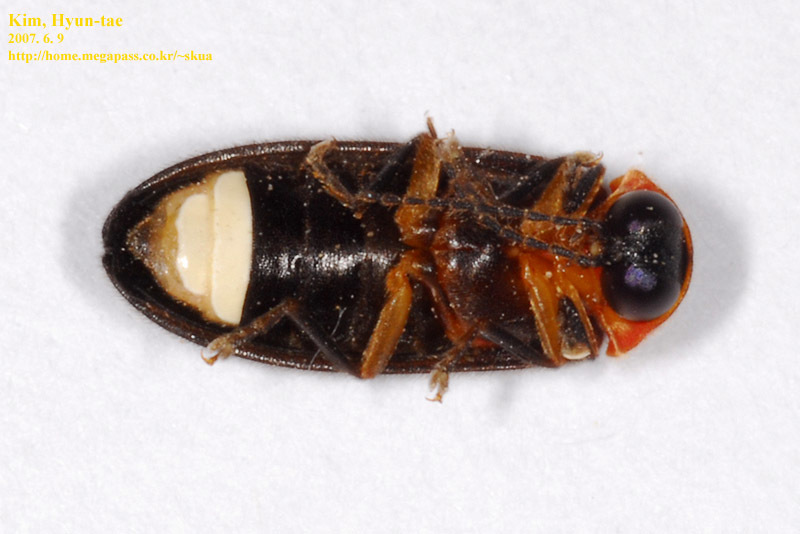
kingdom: Animalia
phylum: Arthropoda
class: Insecta
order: Coleoptera
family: Lampyridae
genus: Aquatica
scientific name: Aquatica lateralis
